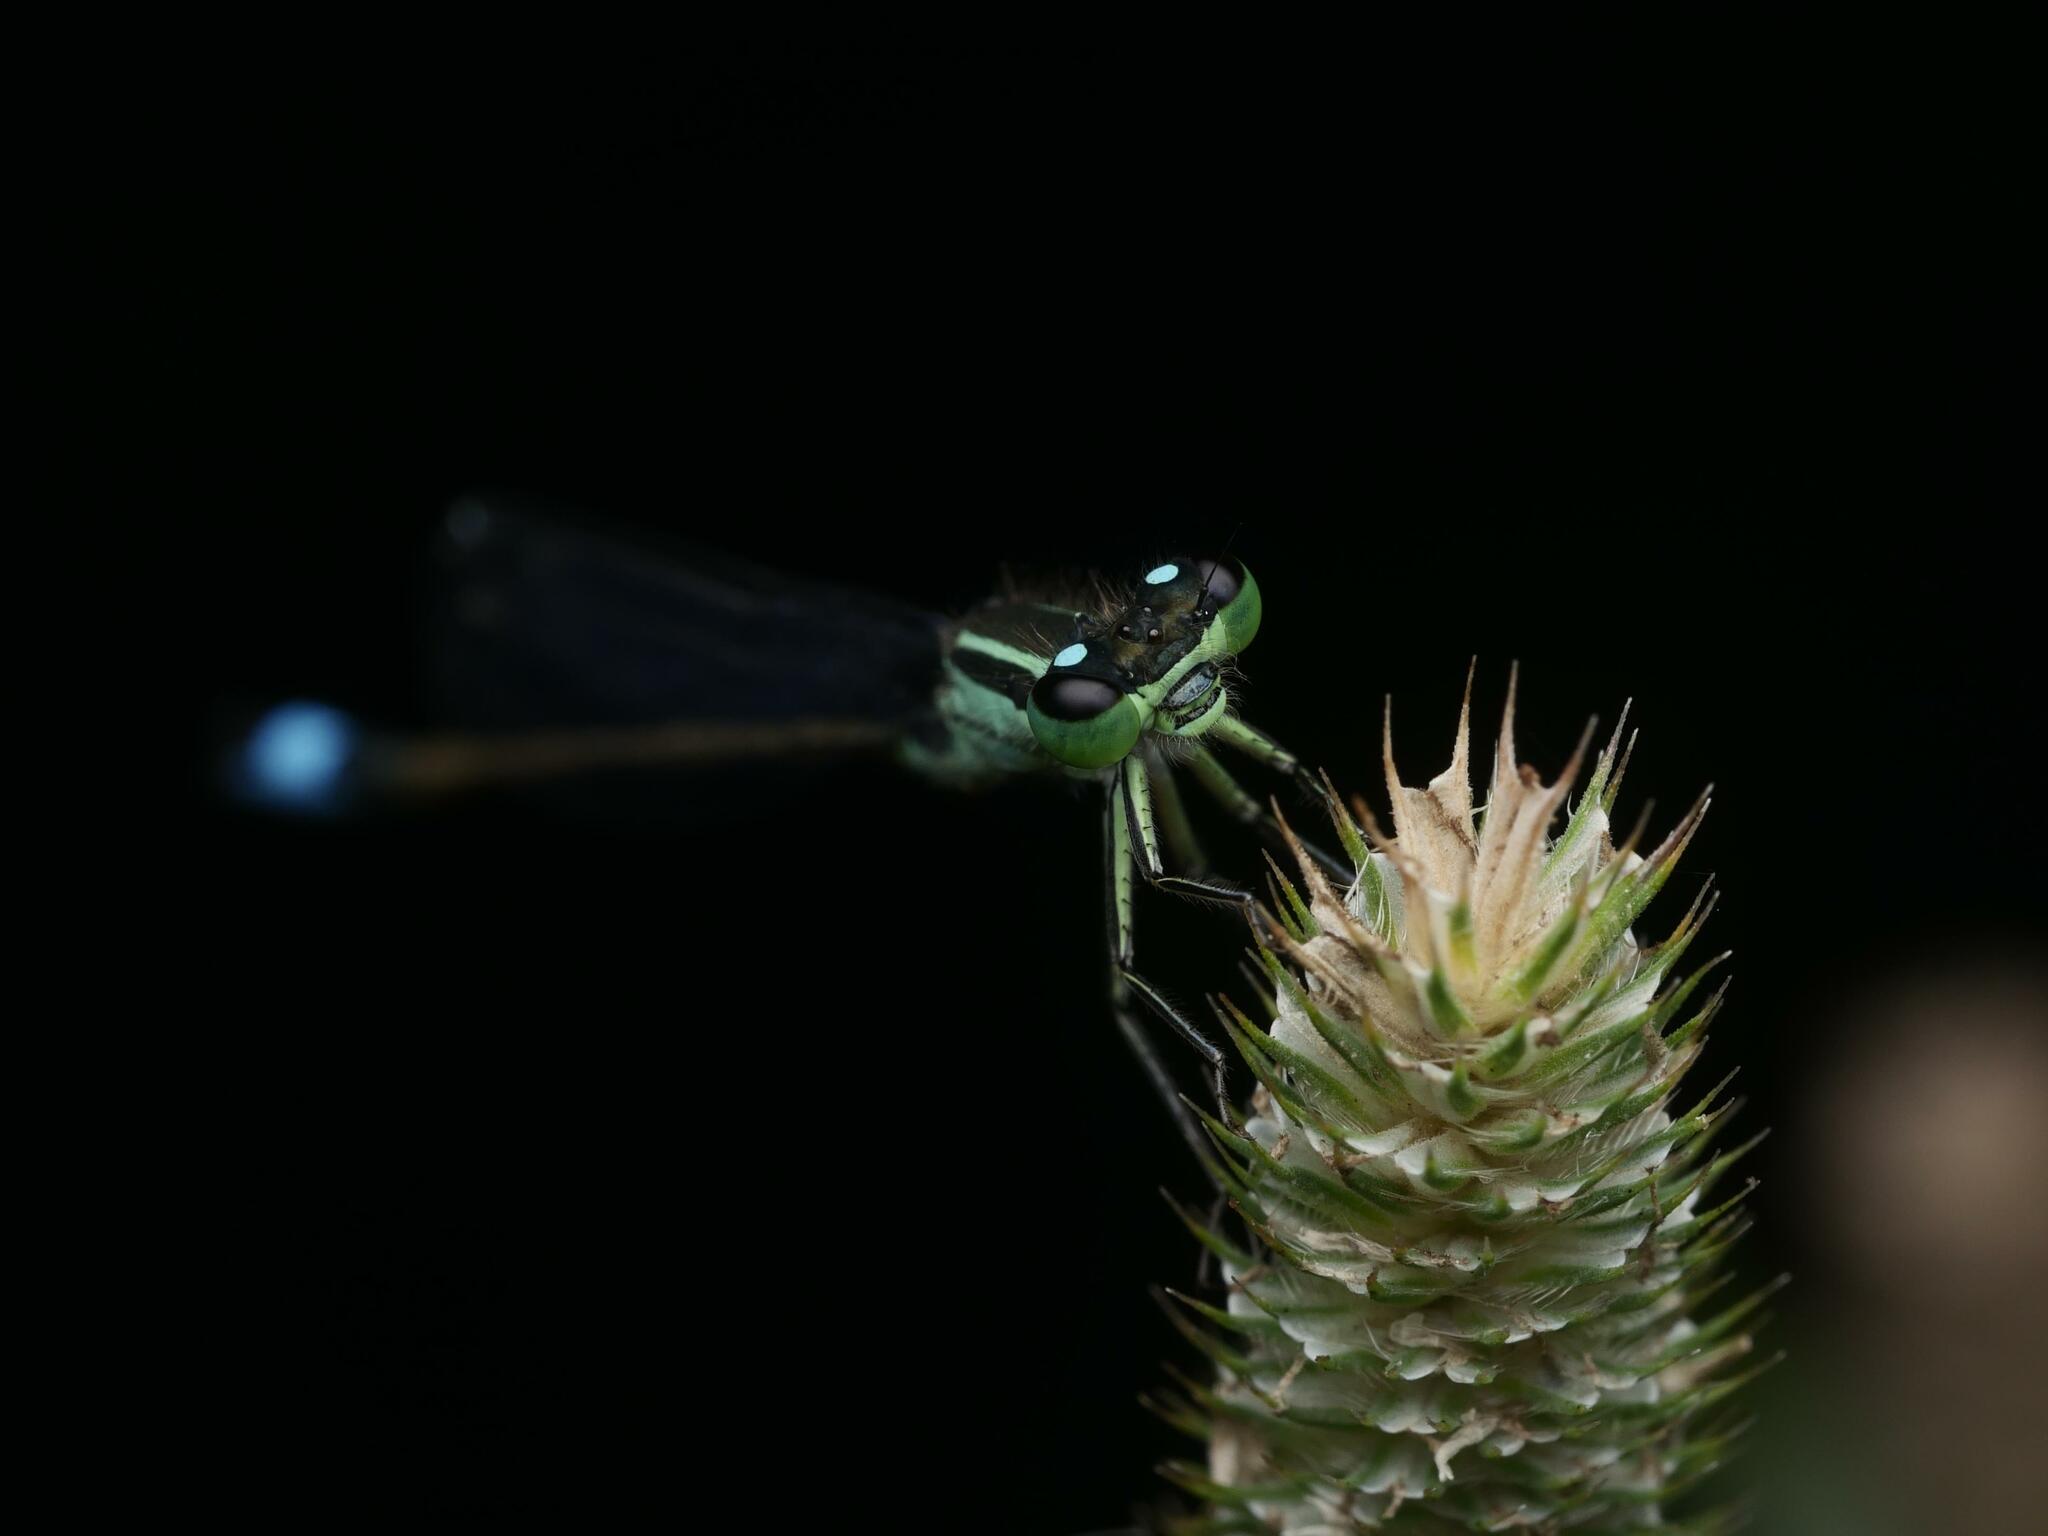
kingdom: Animalia
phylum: Arthropoda
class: Insecta
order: Odonata
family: Coenagrionidae
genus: Ischnura
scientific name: Ischnura elegans
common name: Blue-tailed damselfly
